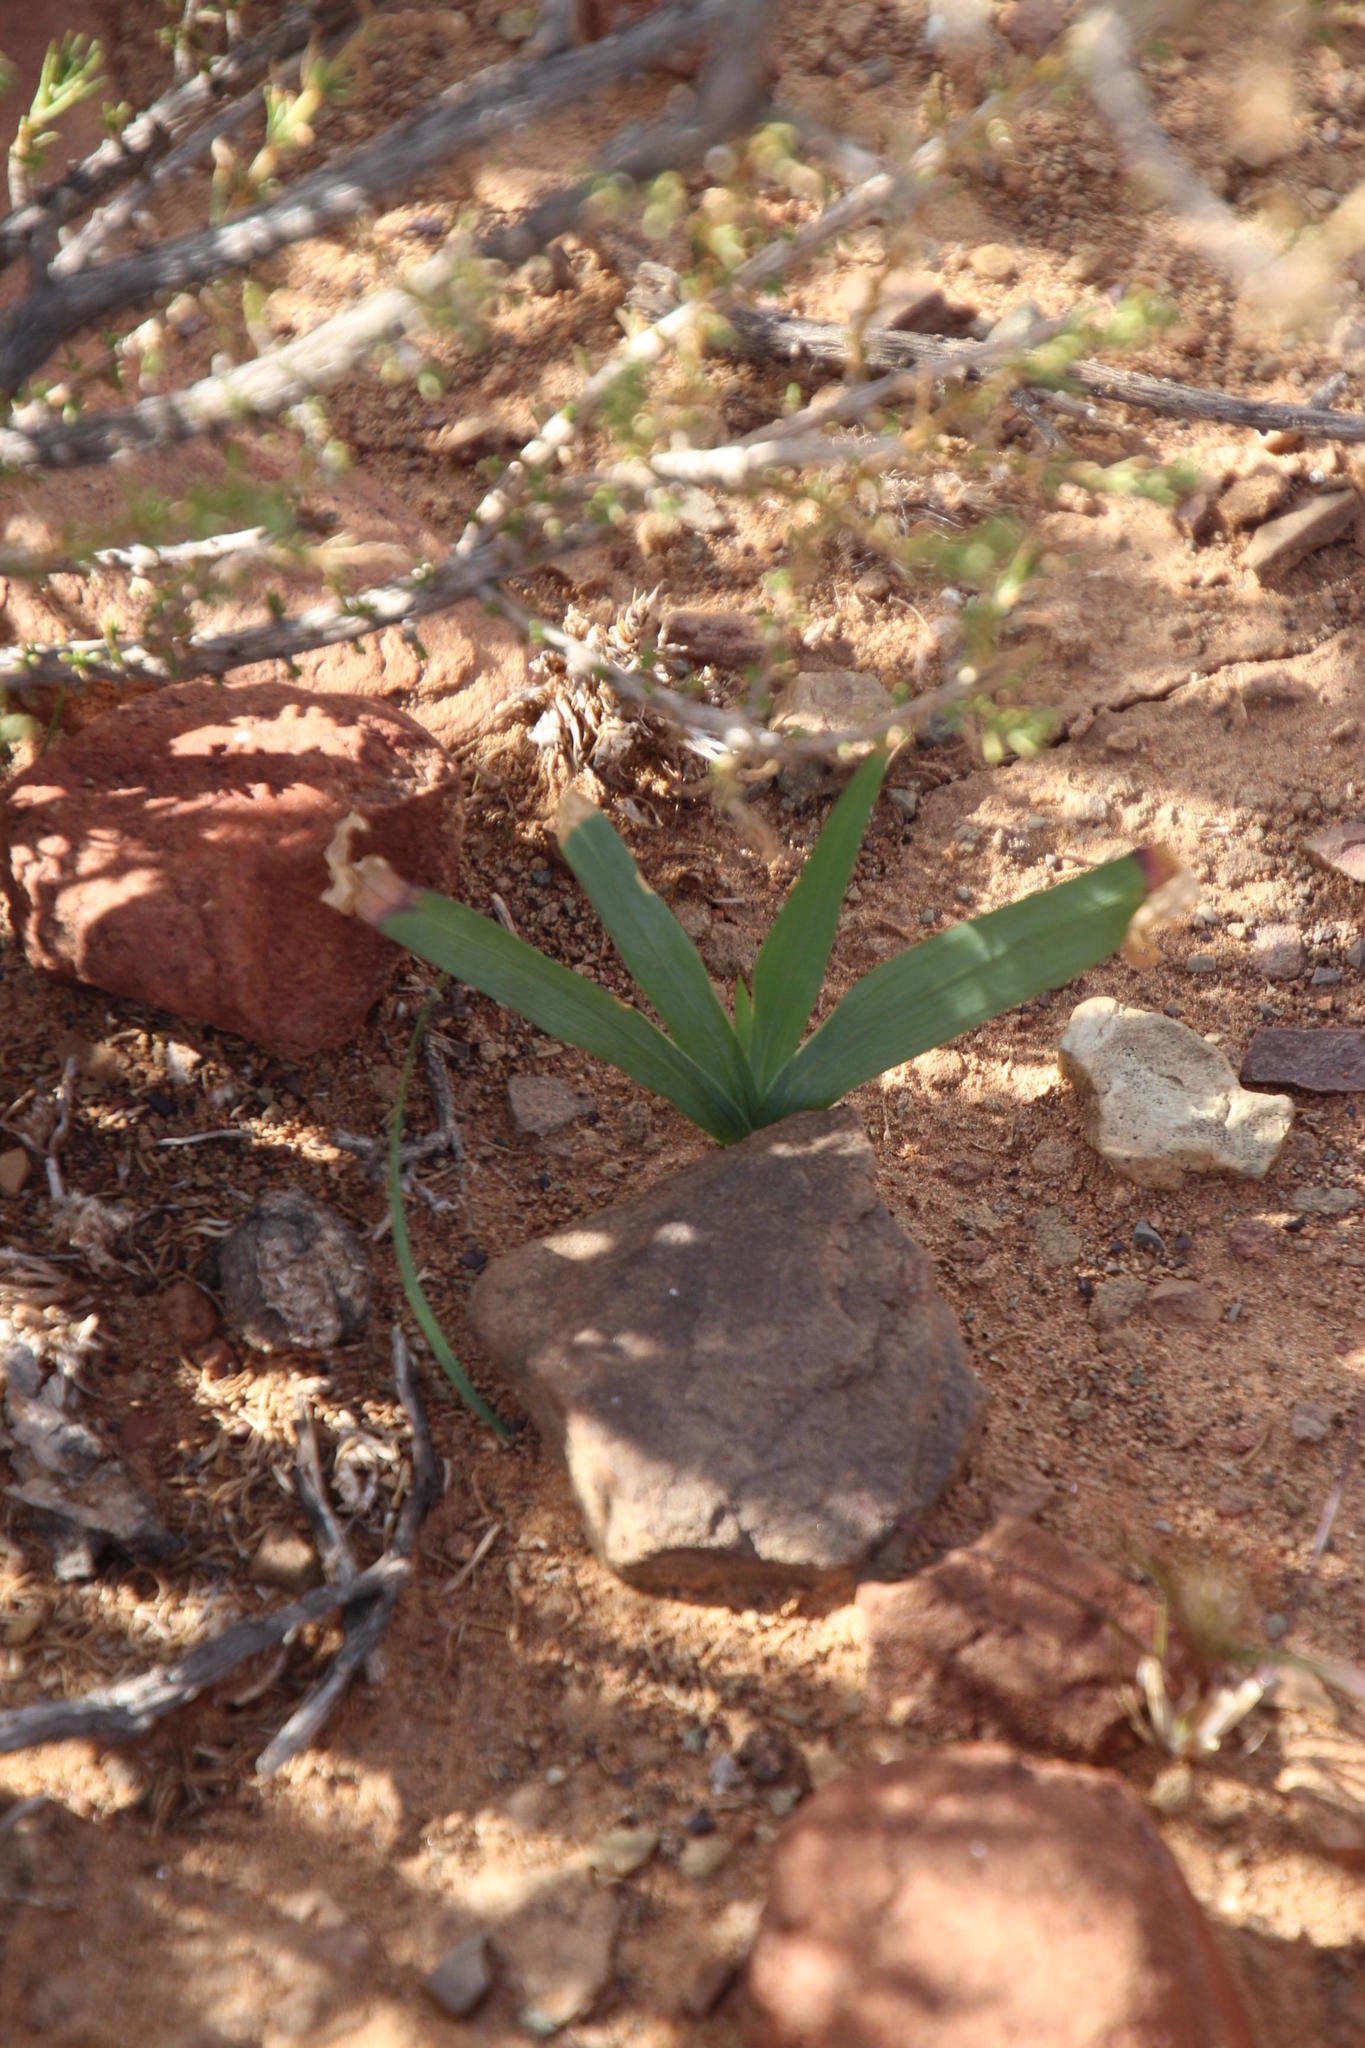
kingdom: Plantae
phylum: Tracheophyta
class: Liliopsida
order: Asparagales
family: Iridaceae
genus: Duthiastrum
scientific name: Duthiastrum linifolium
